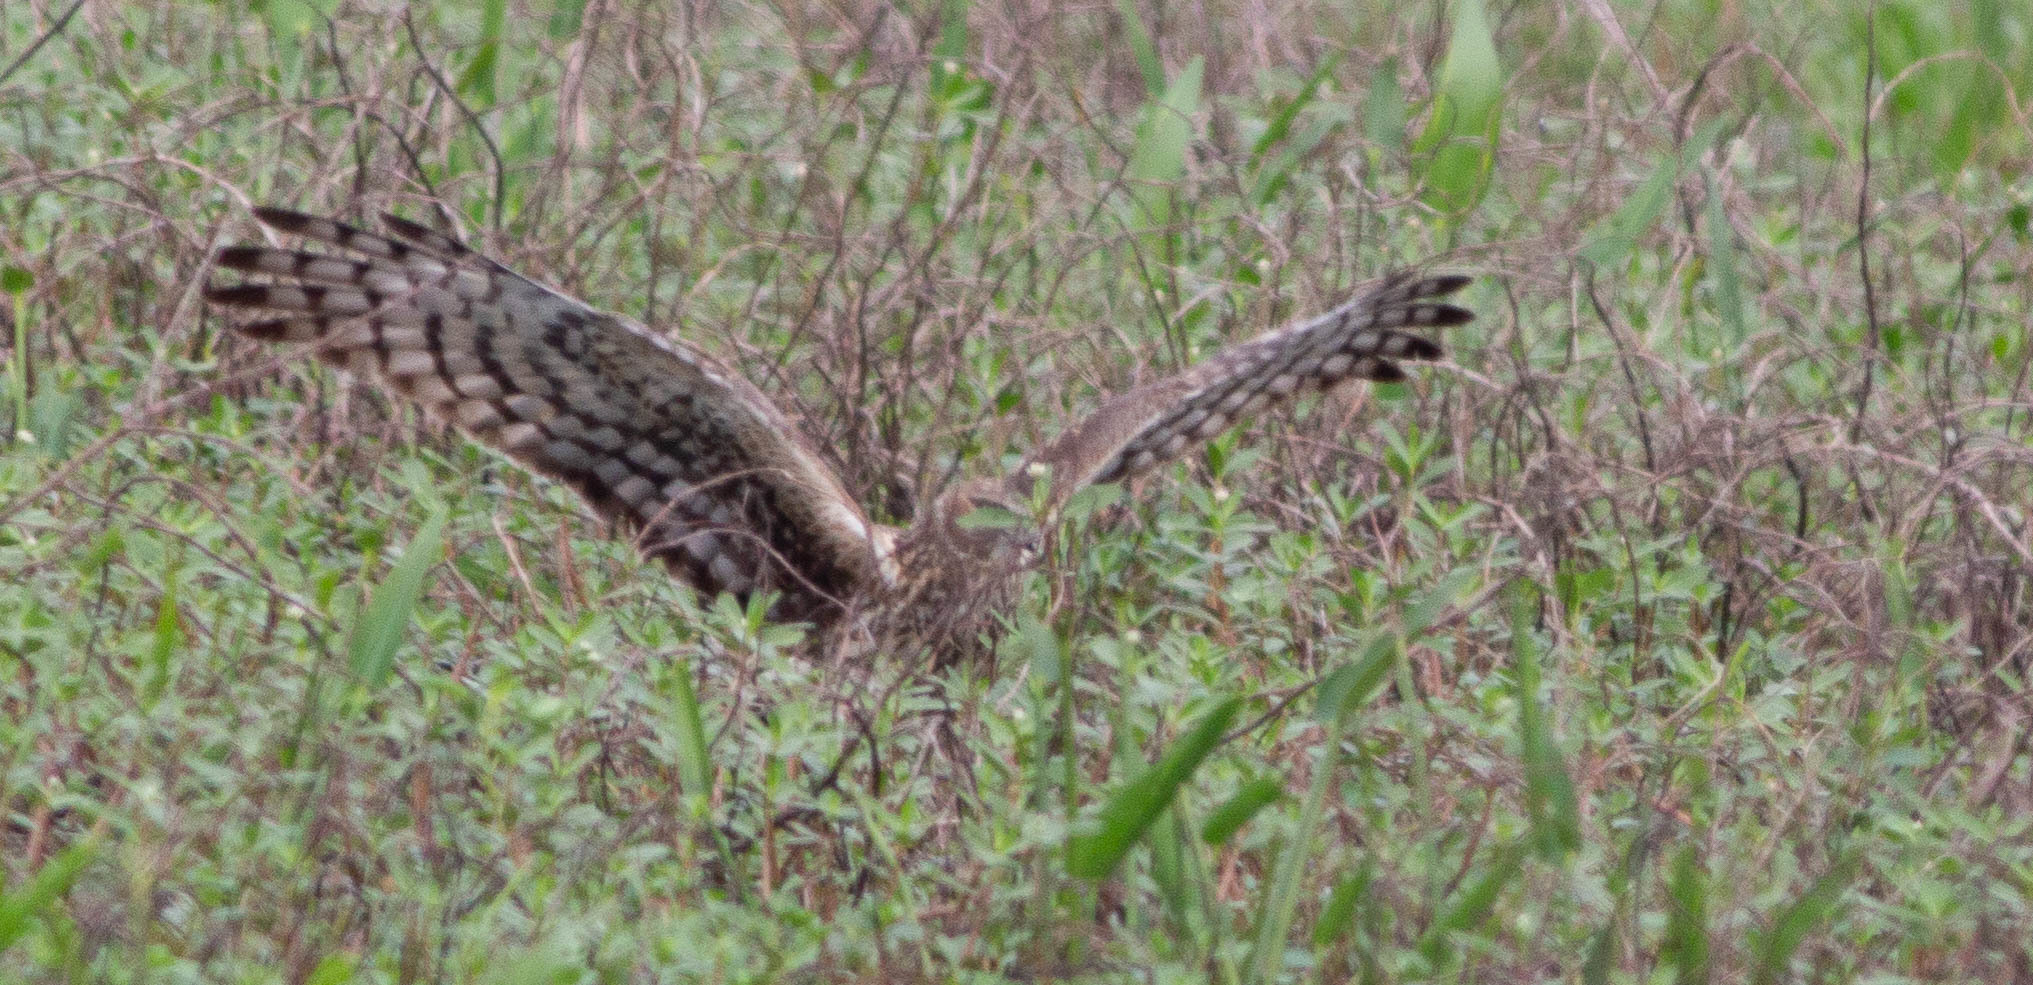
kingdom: Animalia
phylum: Chordata
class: Aves
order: Accipitriformes
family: Accipitridae
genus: Circus
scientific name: Circus cyaneus
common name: Hen harrier
